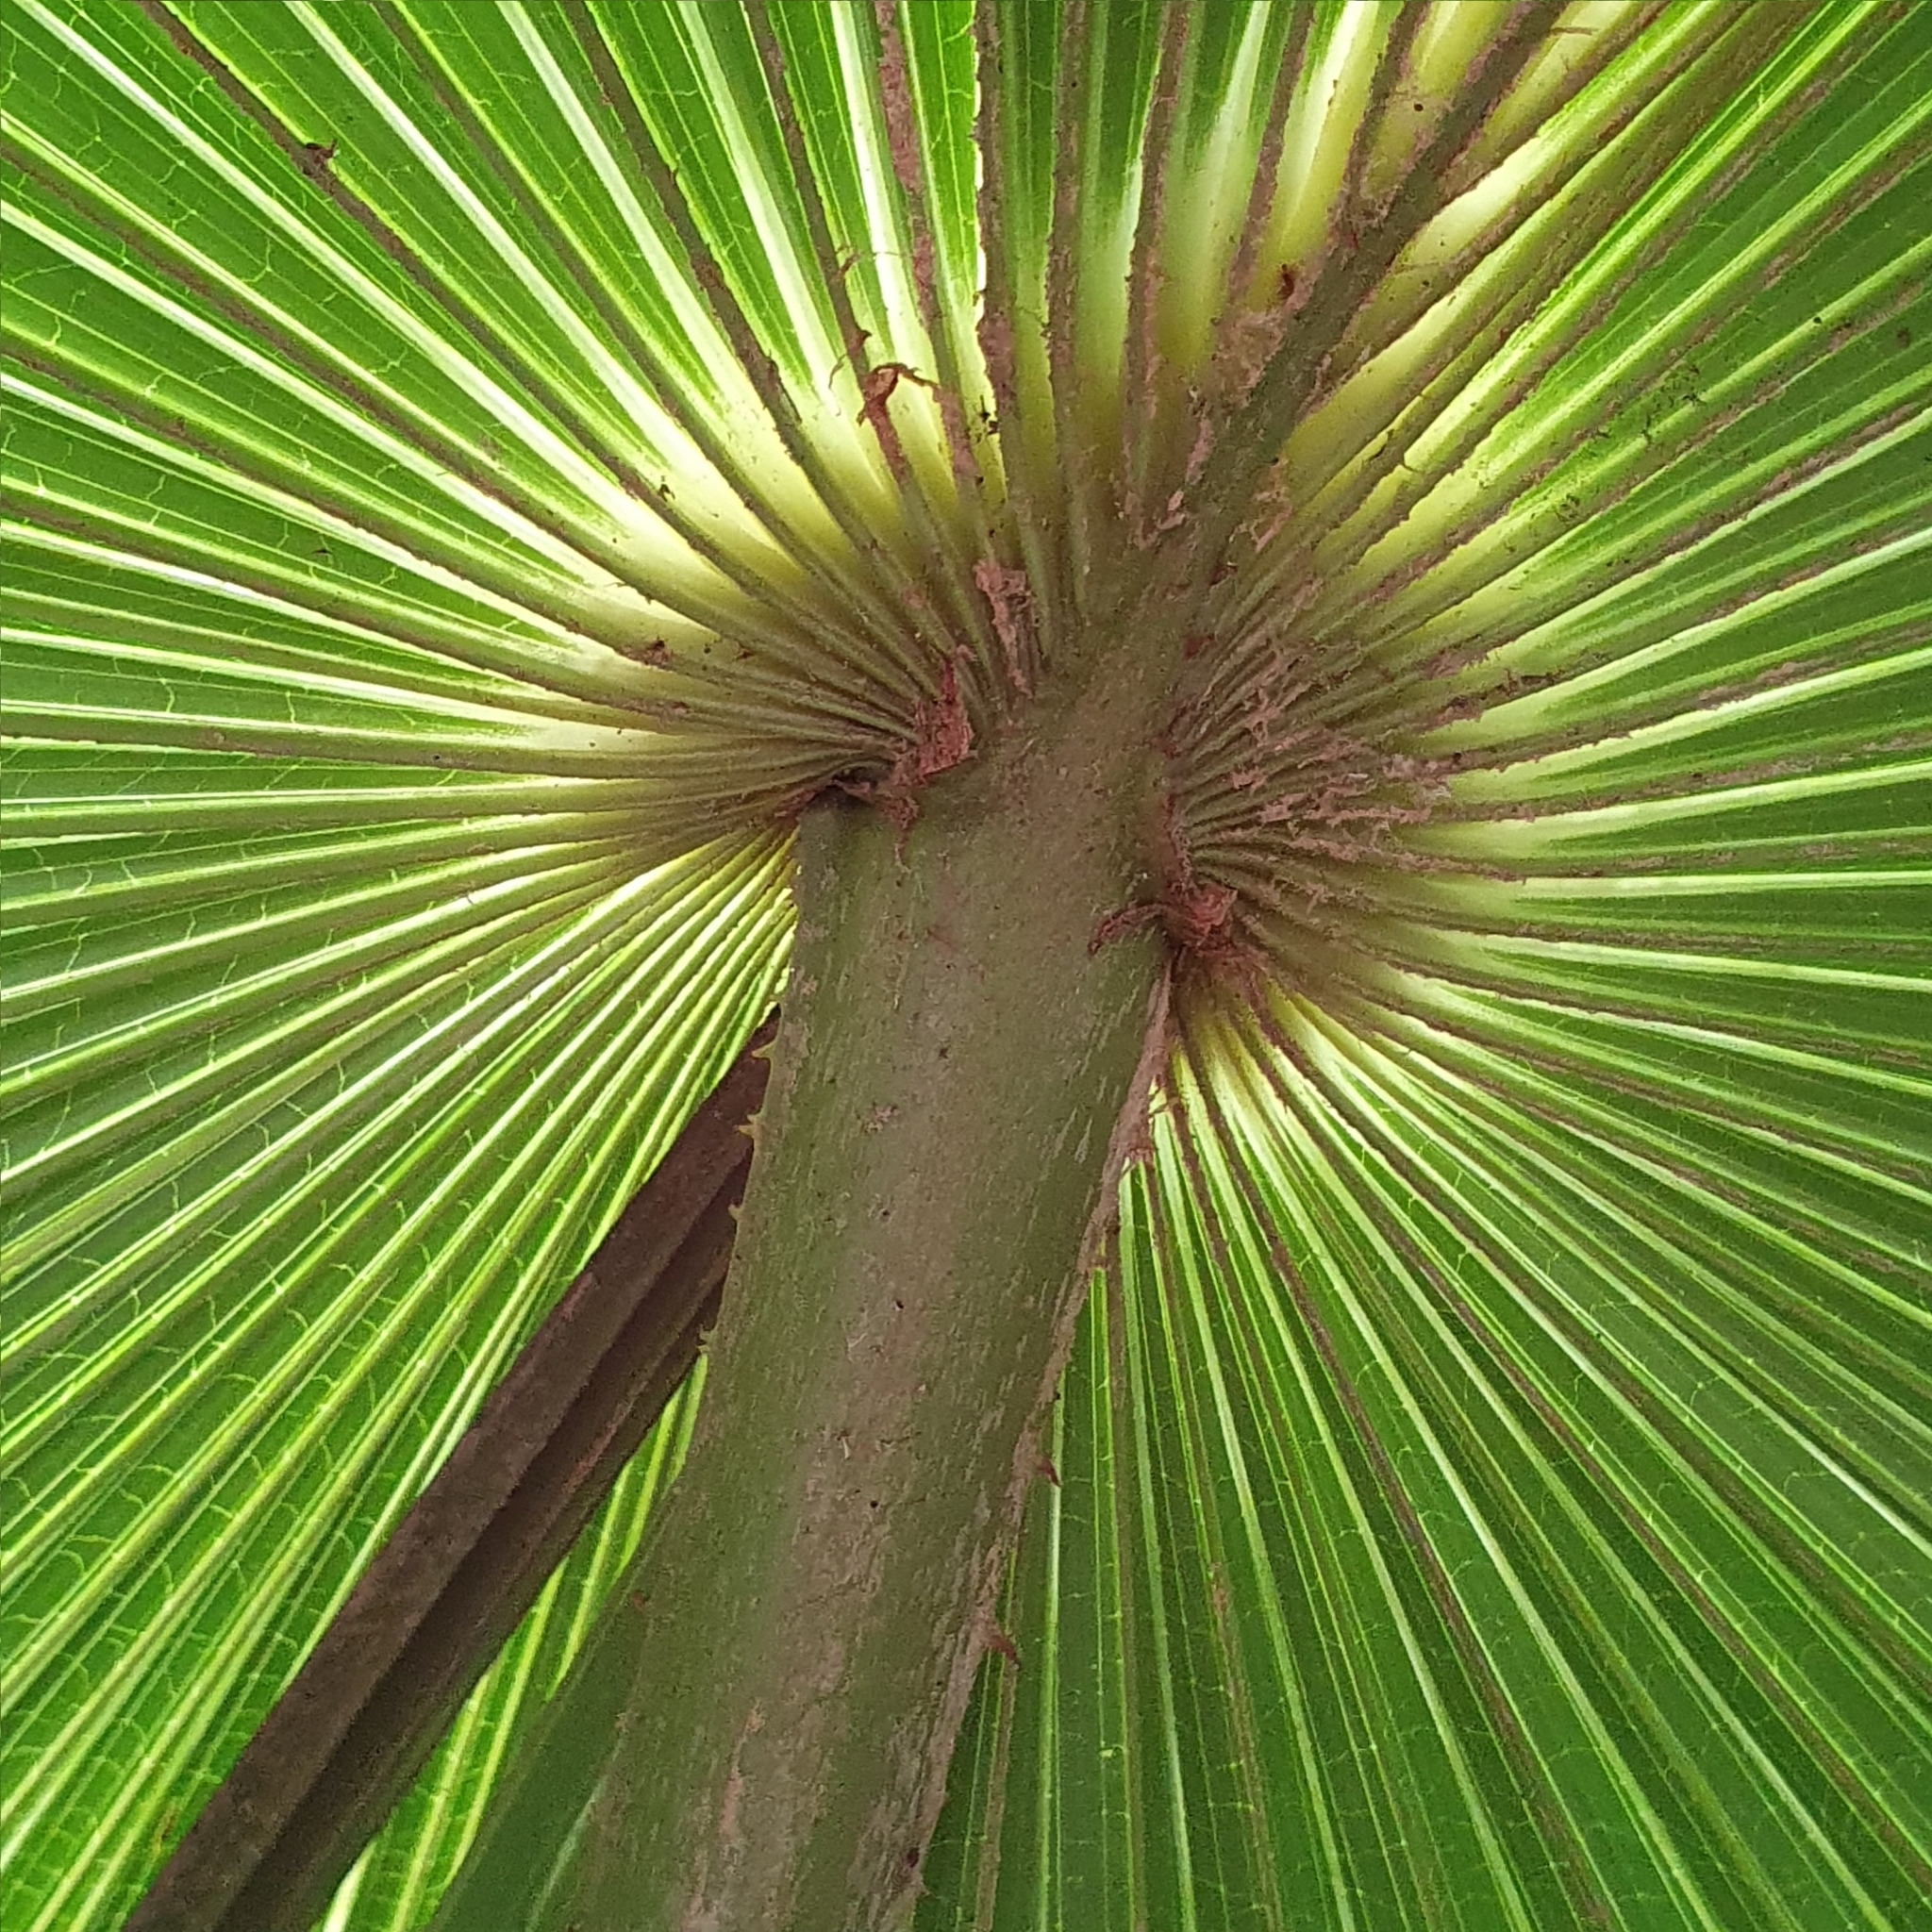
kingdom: Plantae
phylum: Tracheophyta
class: Liliopsida
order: Arecales
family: Arecaceae
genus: Livistona
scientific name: Livistona australis
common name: Cabbage fan palm
